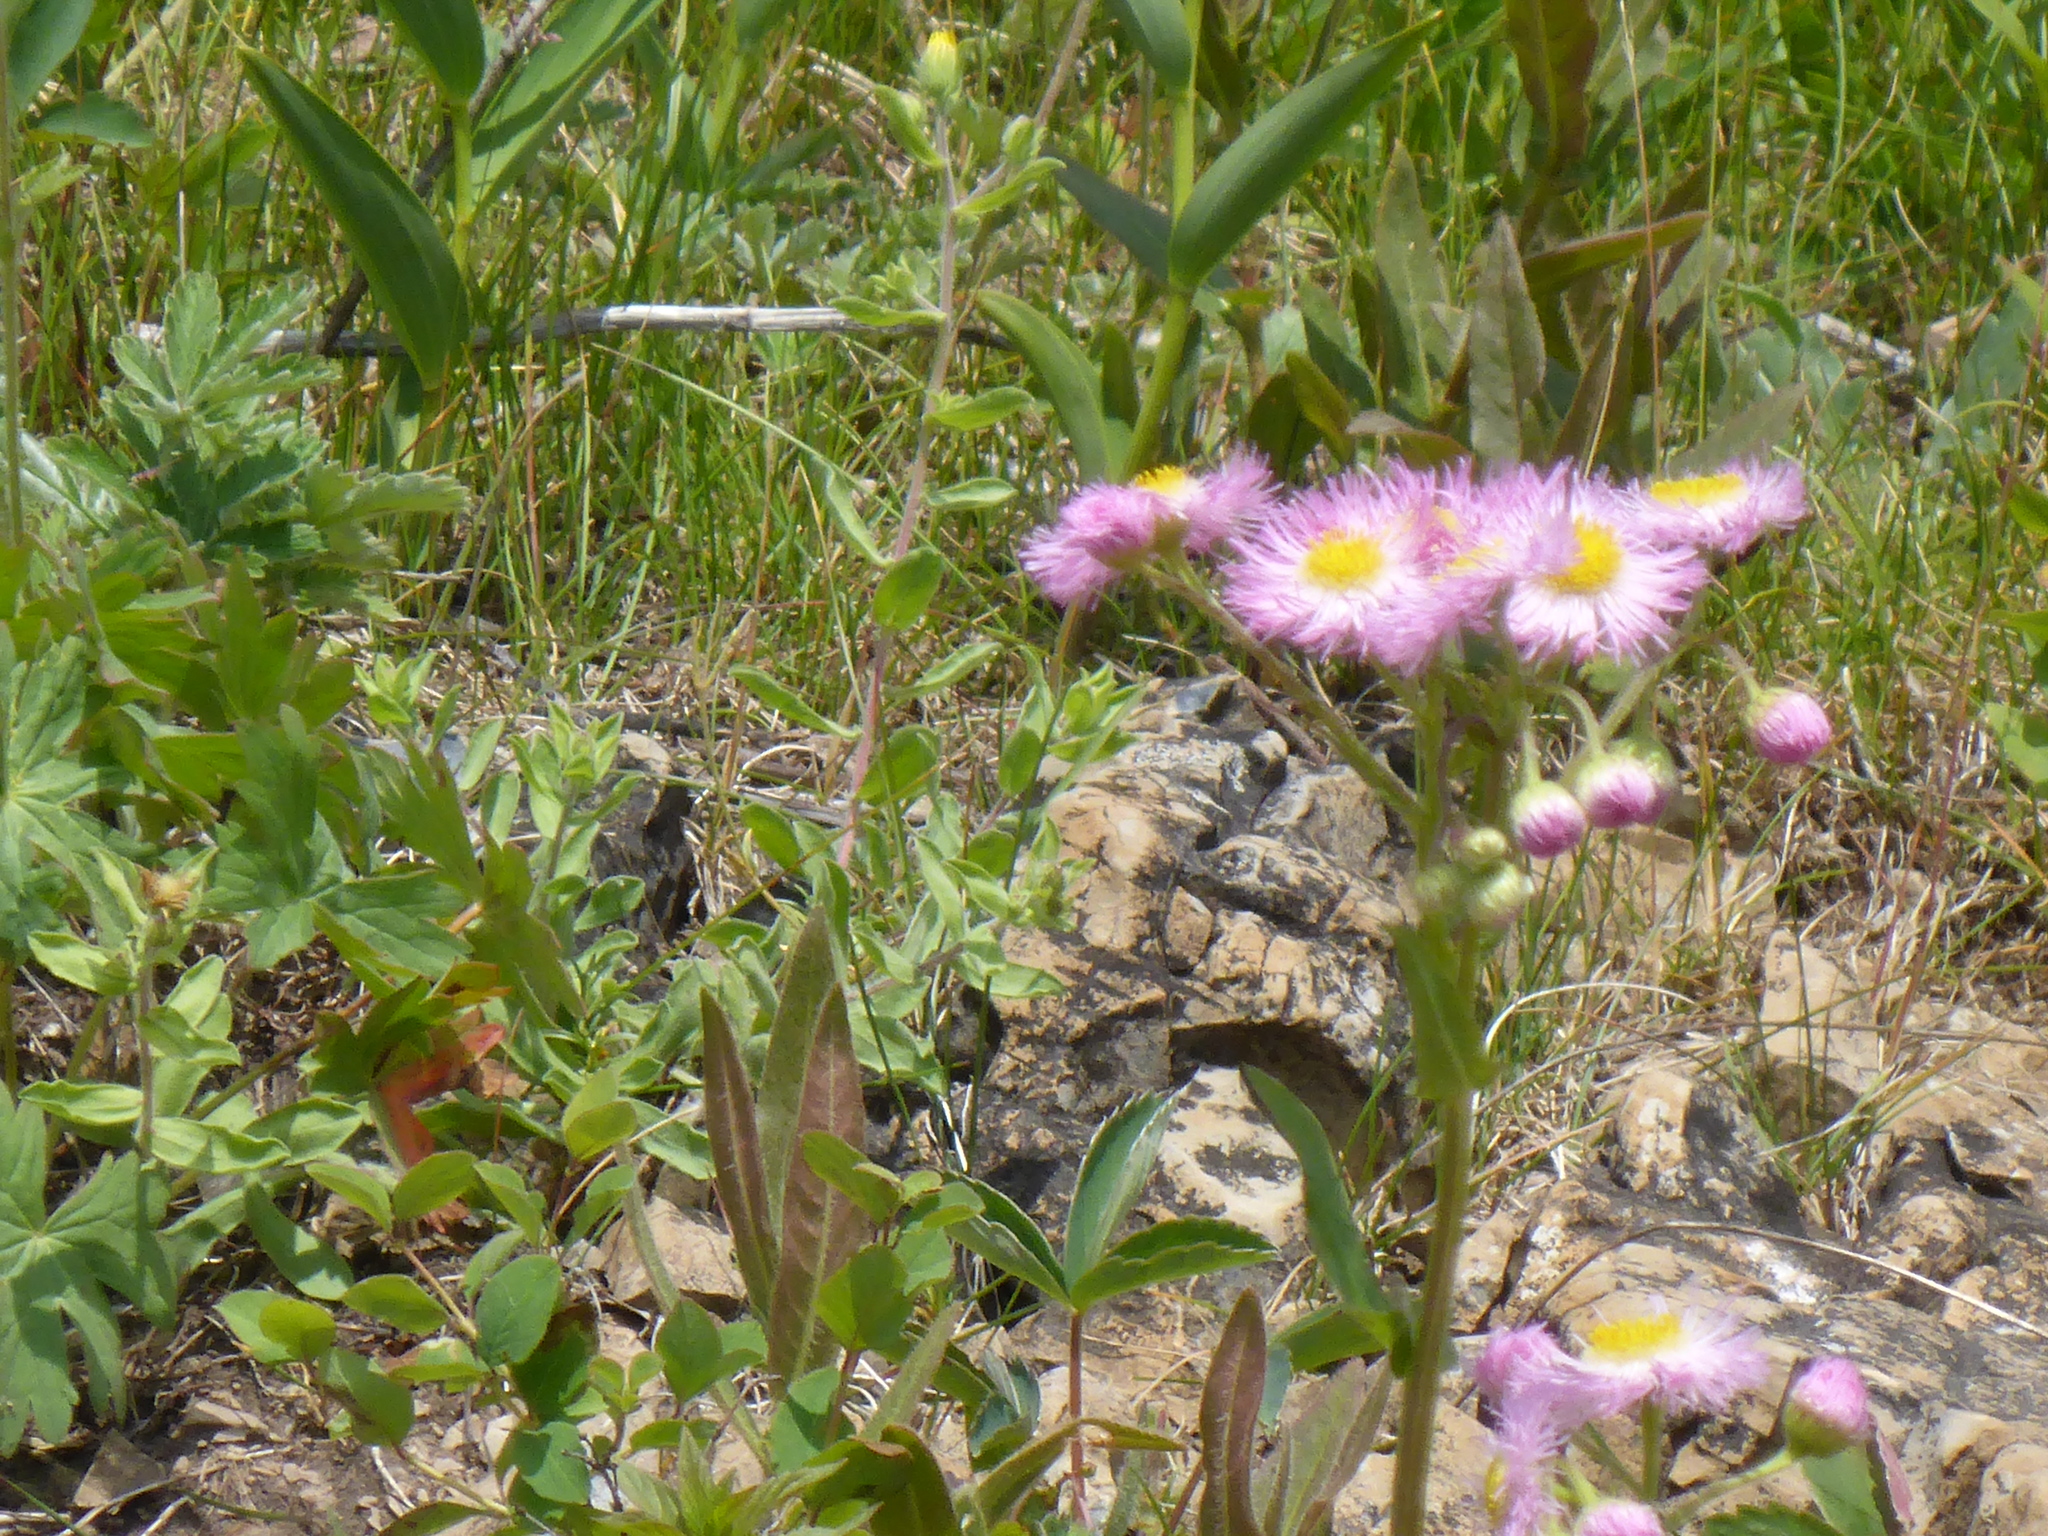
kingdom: Plantae
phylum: Tracheophyta
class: Magnoliopsida
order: Asterales
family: Asteraceae
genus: Erigeron
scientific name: Erigeron philadelphicus
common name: Robin's-plantain
